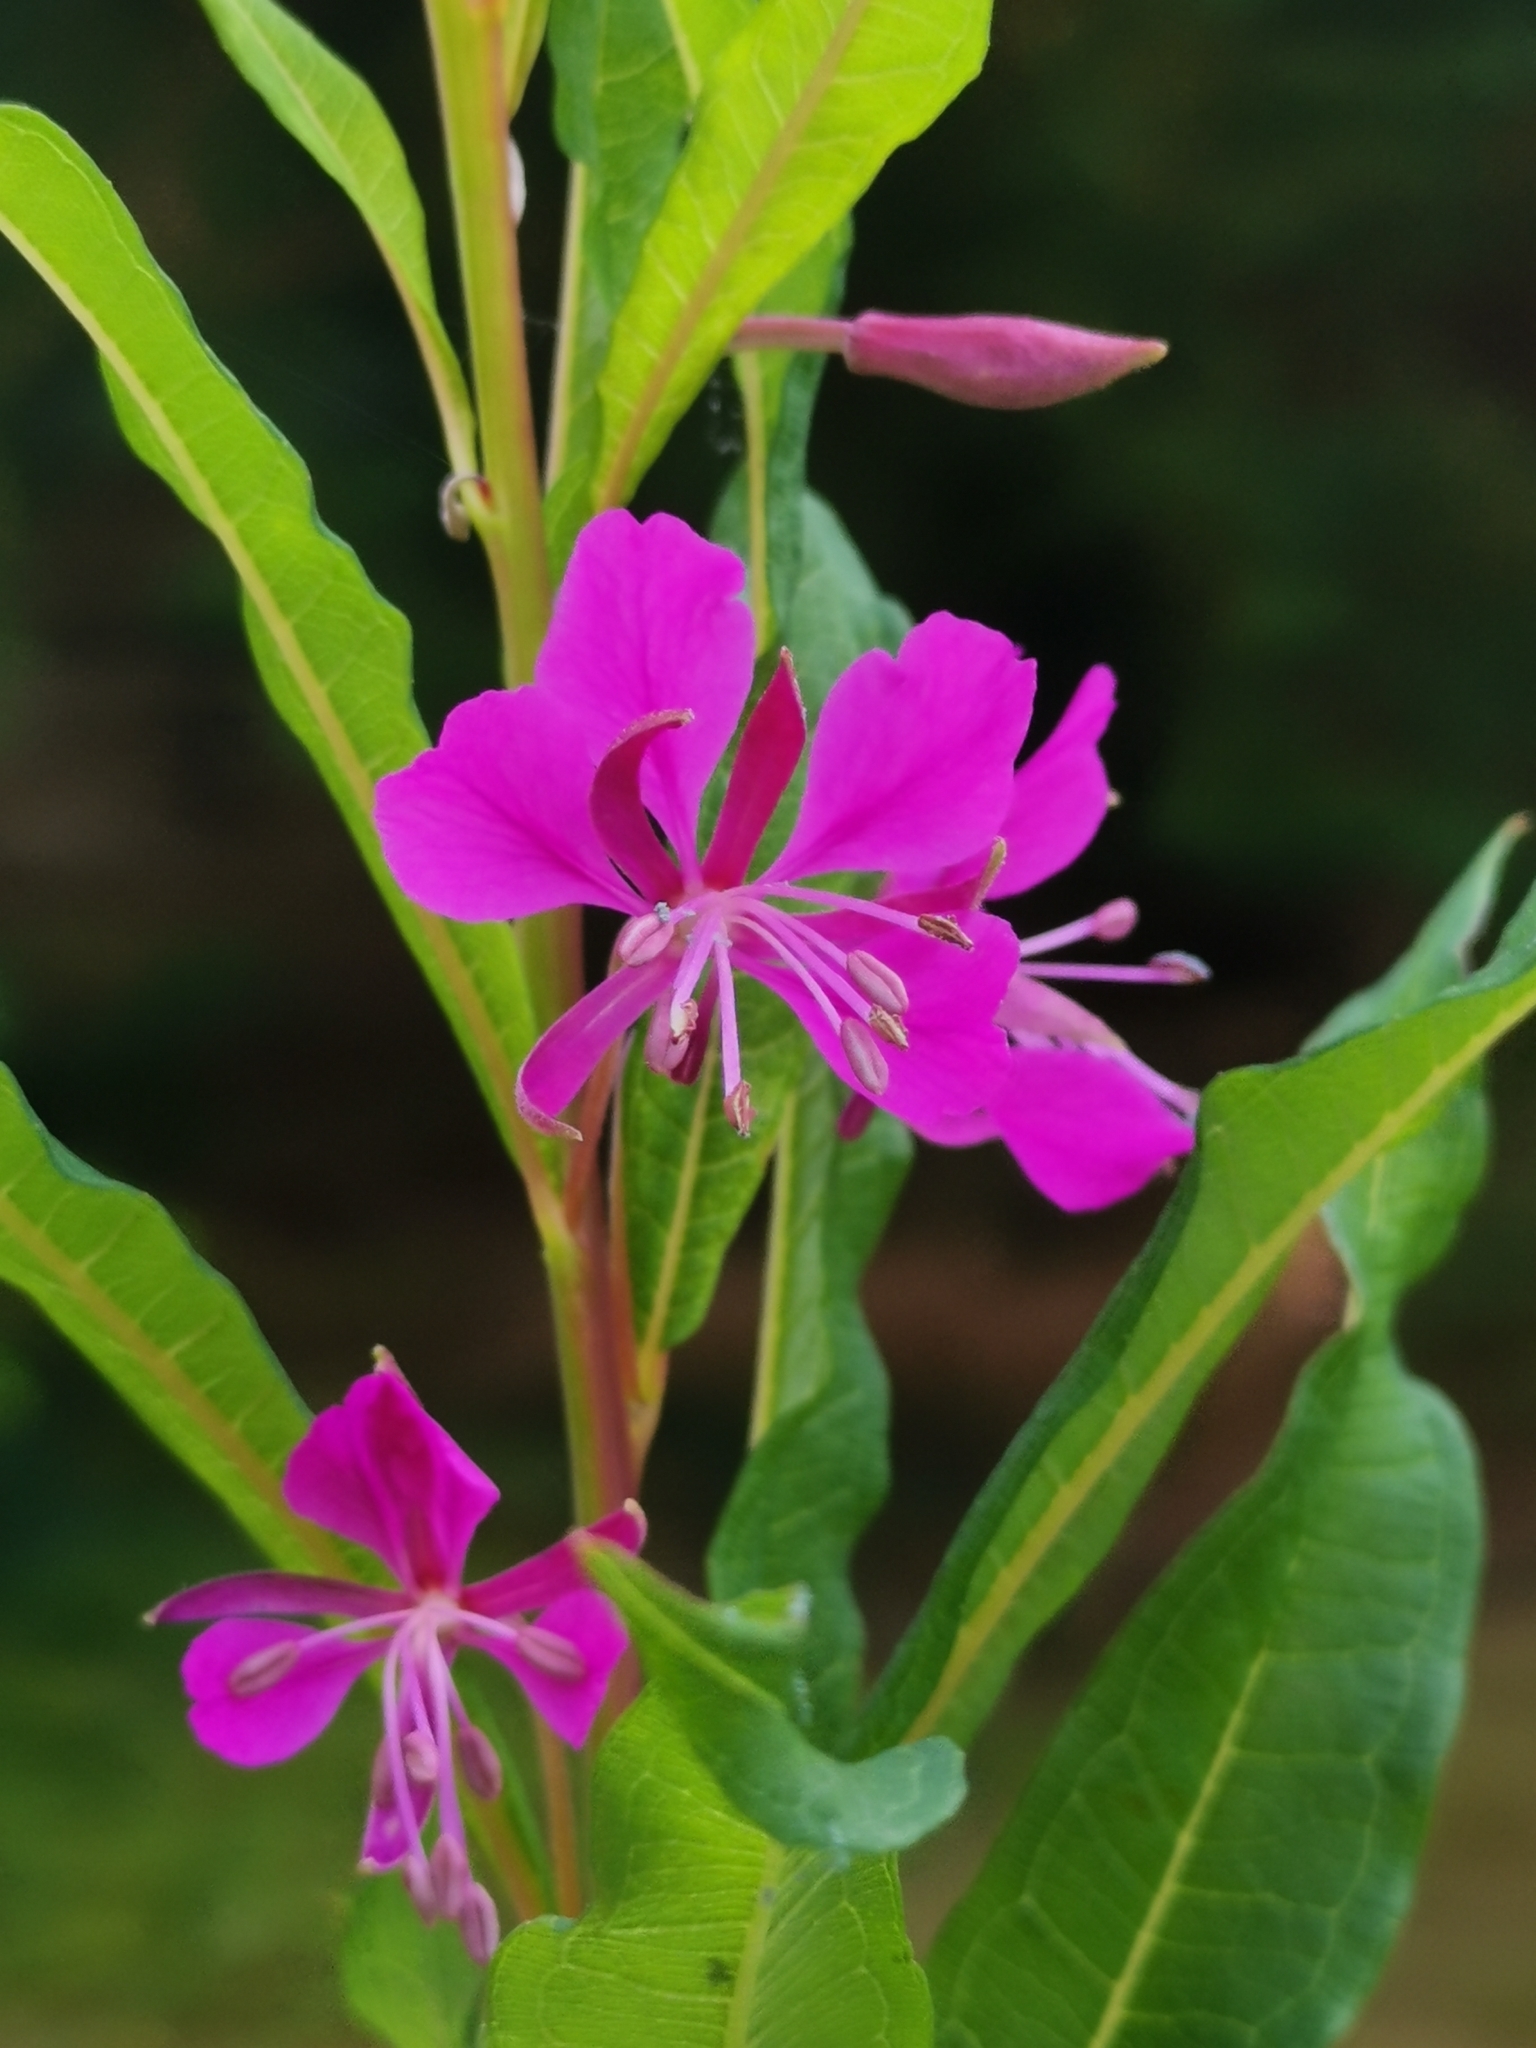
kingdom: Plantae
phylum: Tracheophyta
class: Magnoliopsida
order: Myrtales
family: Onagraceae
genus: Chamaenerion
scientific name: Chamaenerion angustifolium
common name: Fireweed
